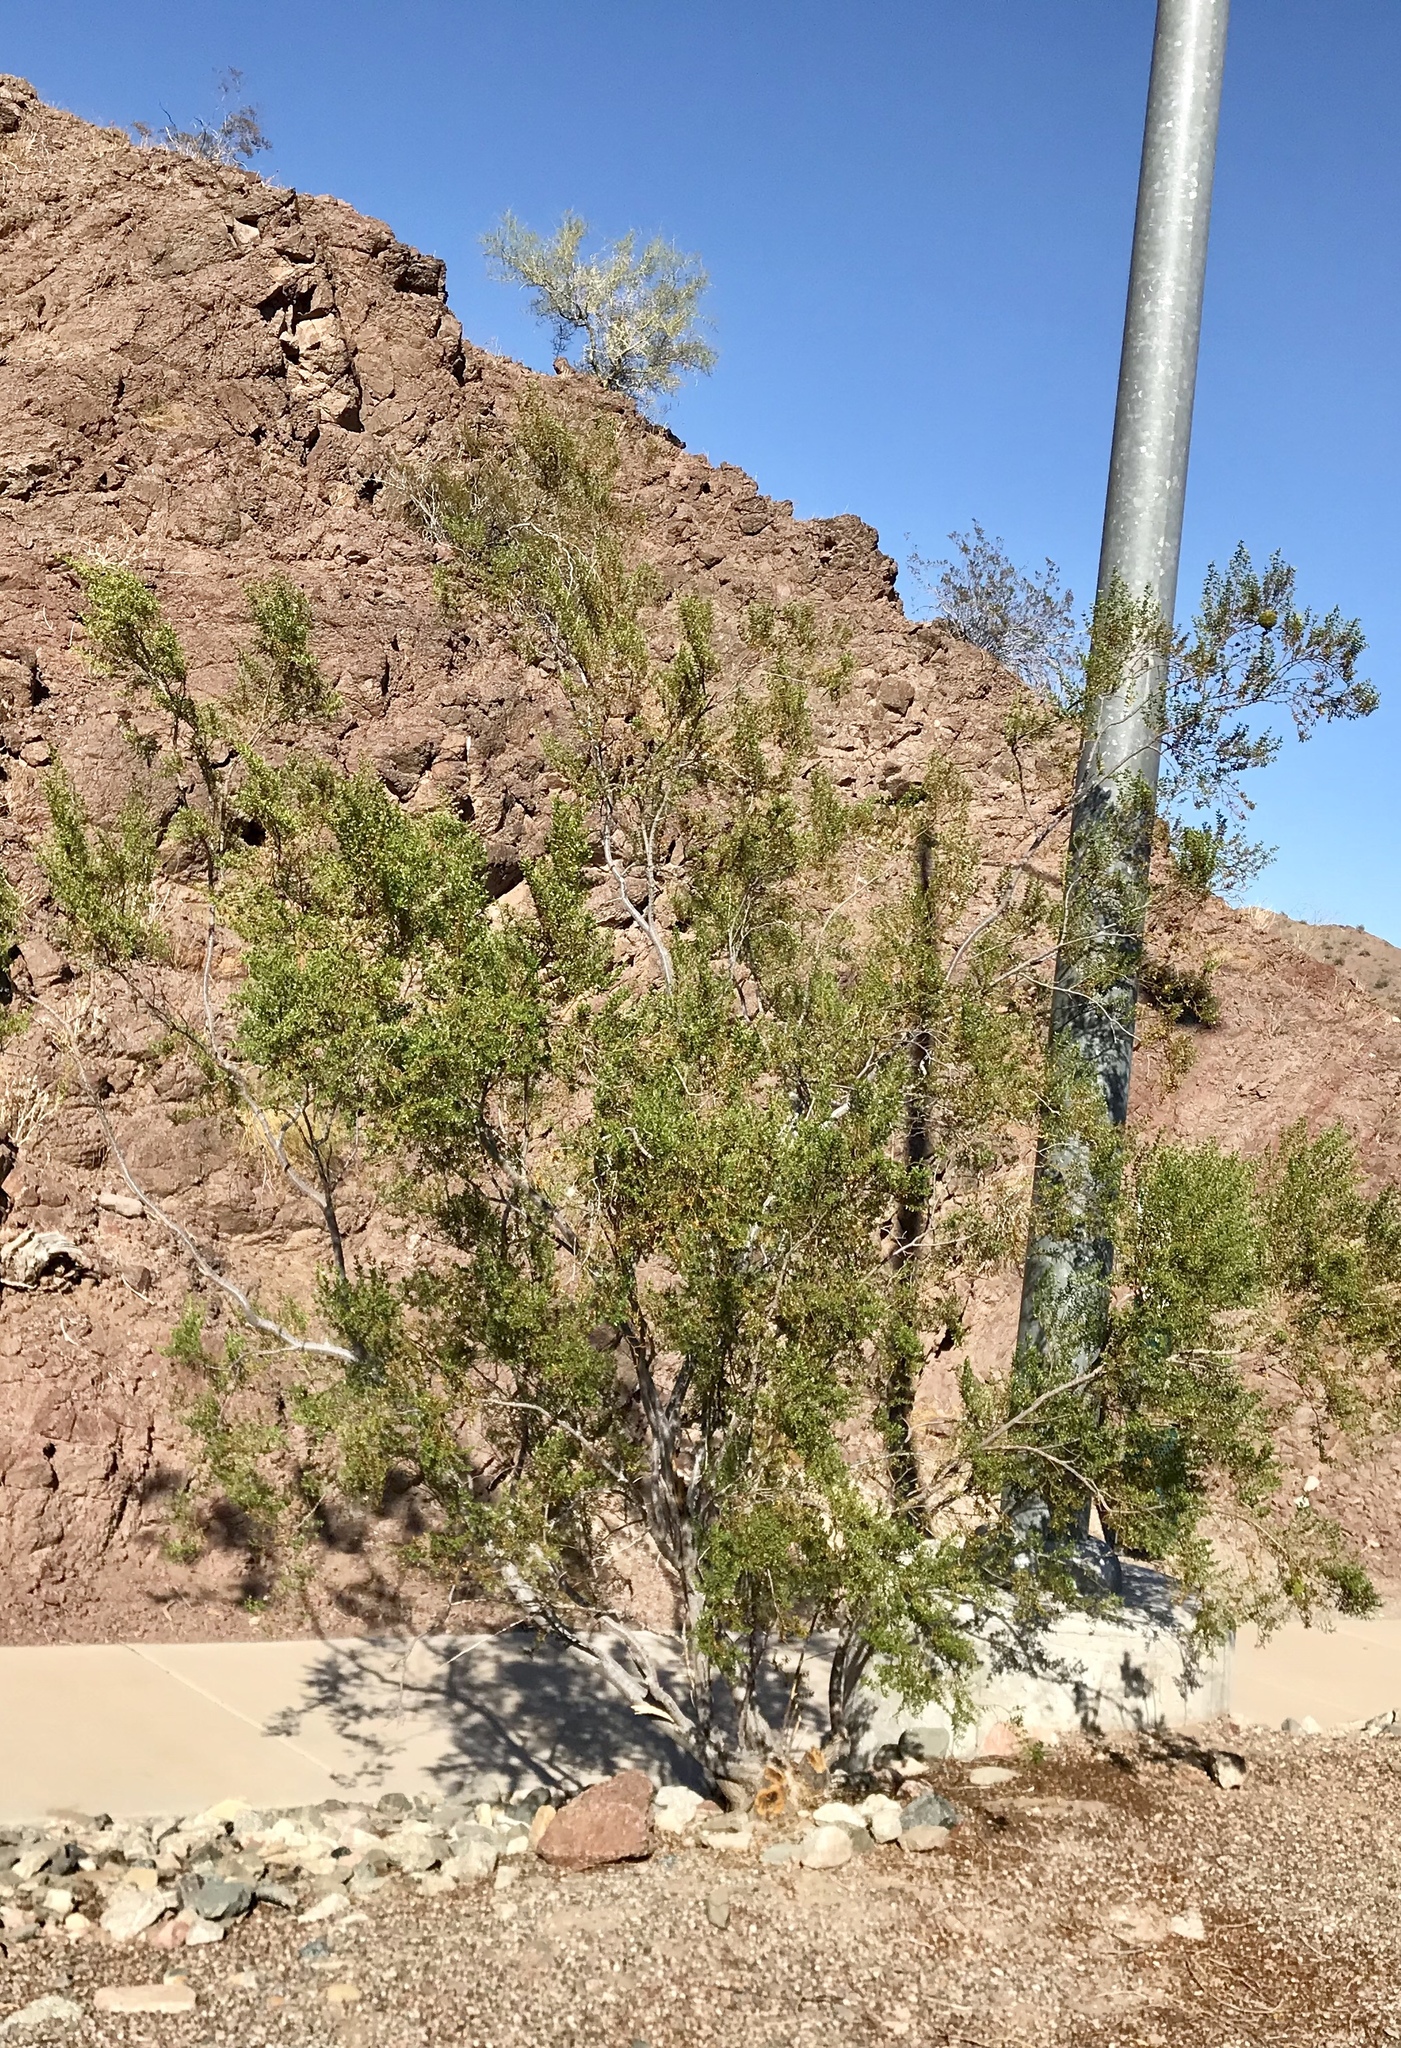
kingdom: Plantae
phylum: Tracheophyta
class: Magnoliopsida
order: Zygophyllales
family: Zygophyllaceae
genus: Larrea
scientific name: Larrea tridentata
